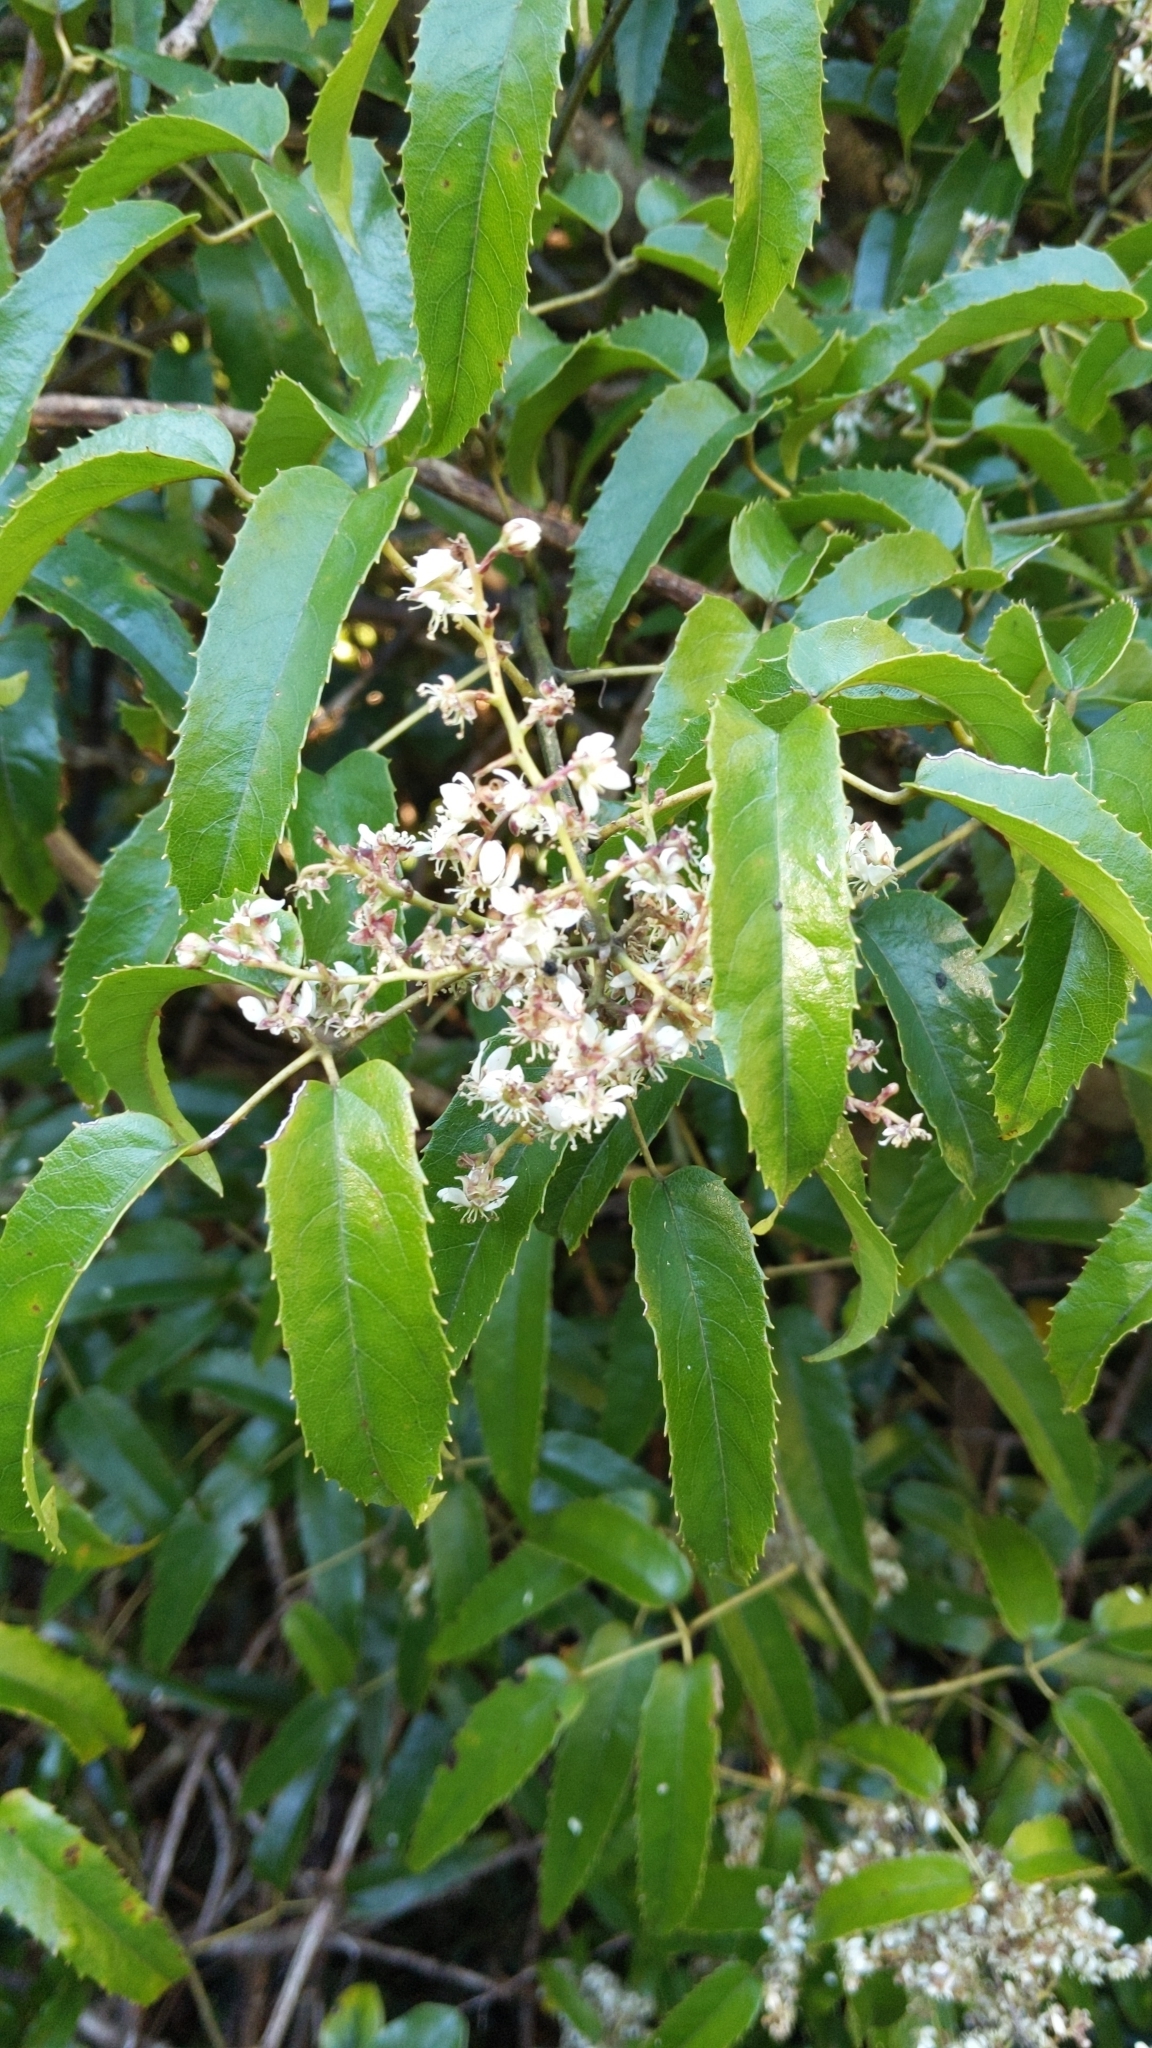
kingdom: Plantae
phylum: Tracheophyta
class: Magnoliopsida
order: Rosales
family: Rosaceae
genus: Rubus
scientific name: Rubus cissoides
